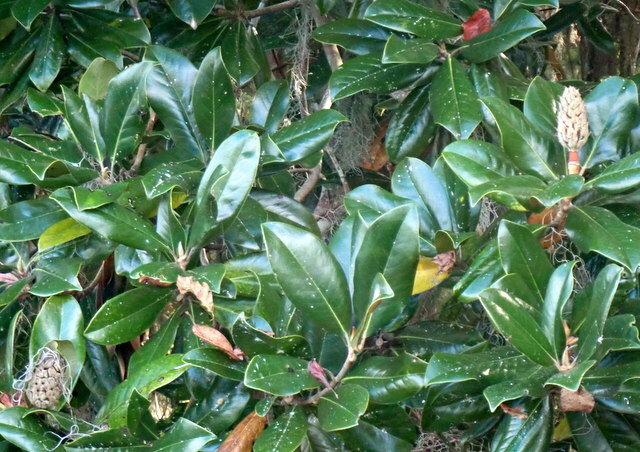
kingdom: Plantae
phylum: Tracheophyta
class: Magnoliopsida
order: Magnoliales
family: Magnoliaceae
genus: Magnolia
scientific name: Magnolia grandiflora
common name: Southern magnolia
